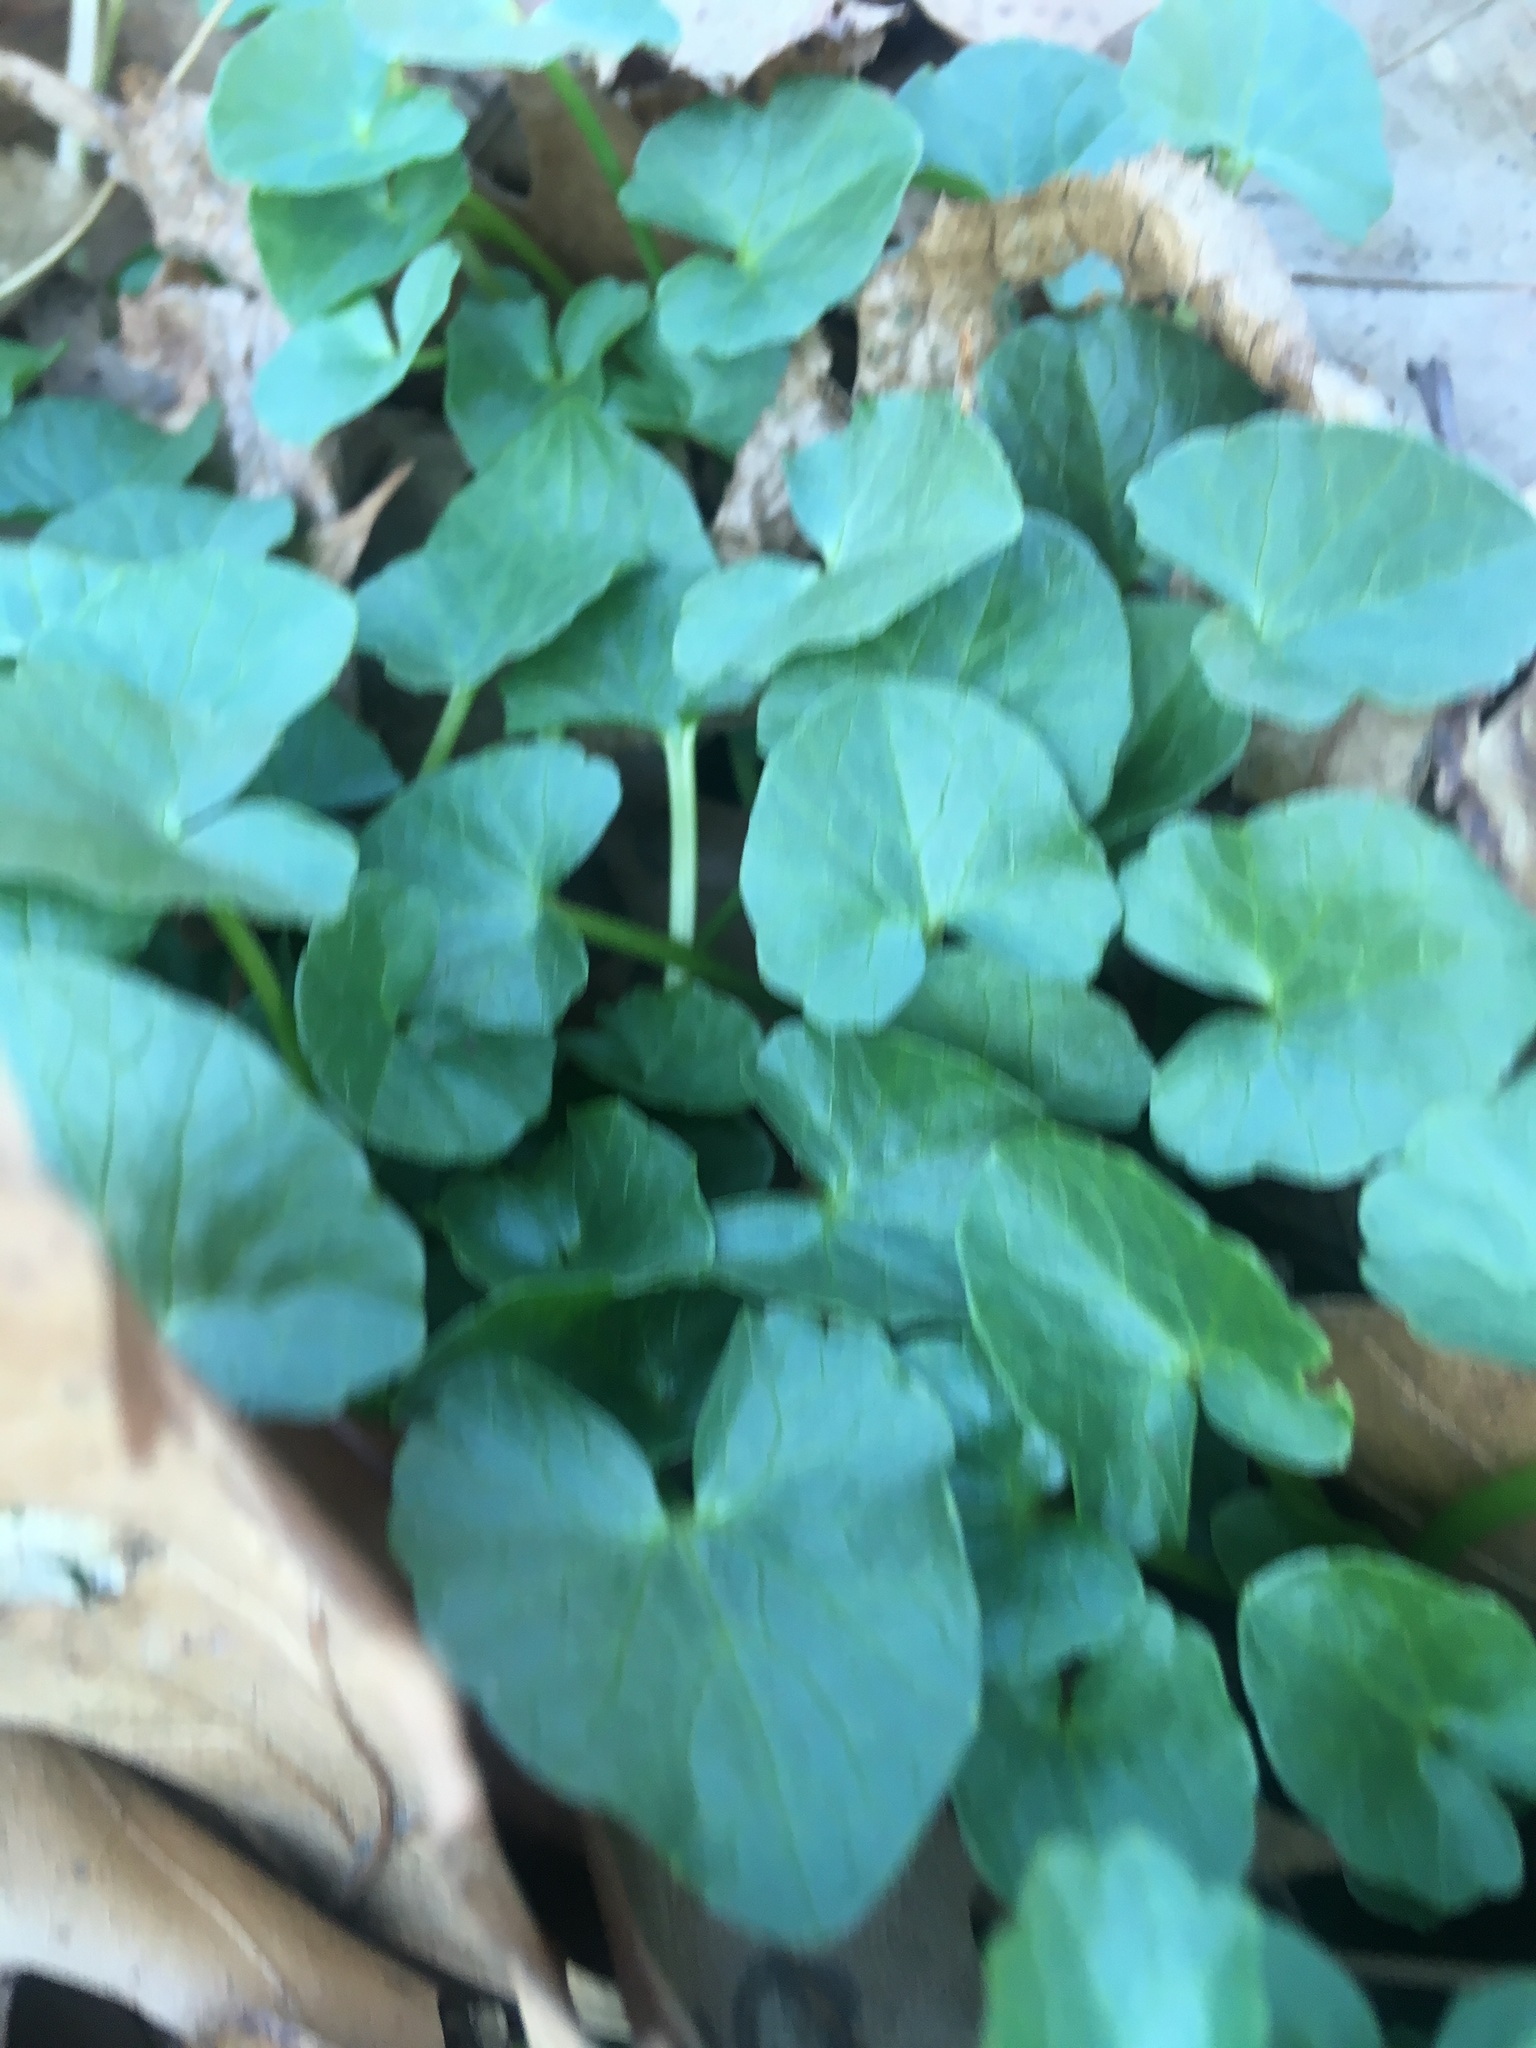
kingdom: Plantae
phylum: Tracheophyta
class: Magnoliopsida
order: Ranunculales
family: Ranunculaceae
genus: Ficaria
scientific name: Ficaria verna
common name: Lesser celandine
